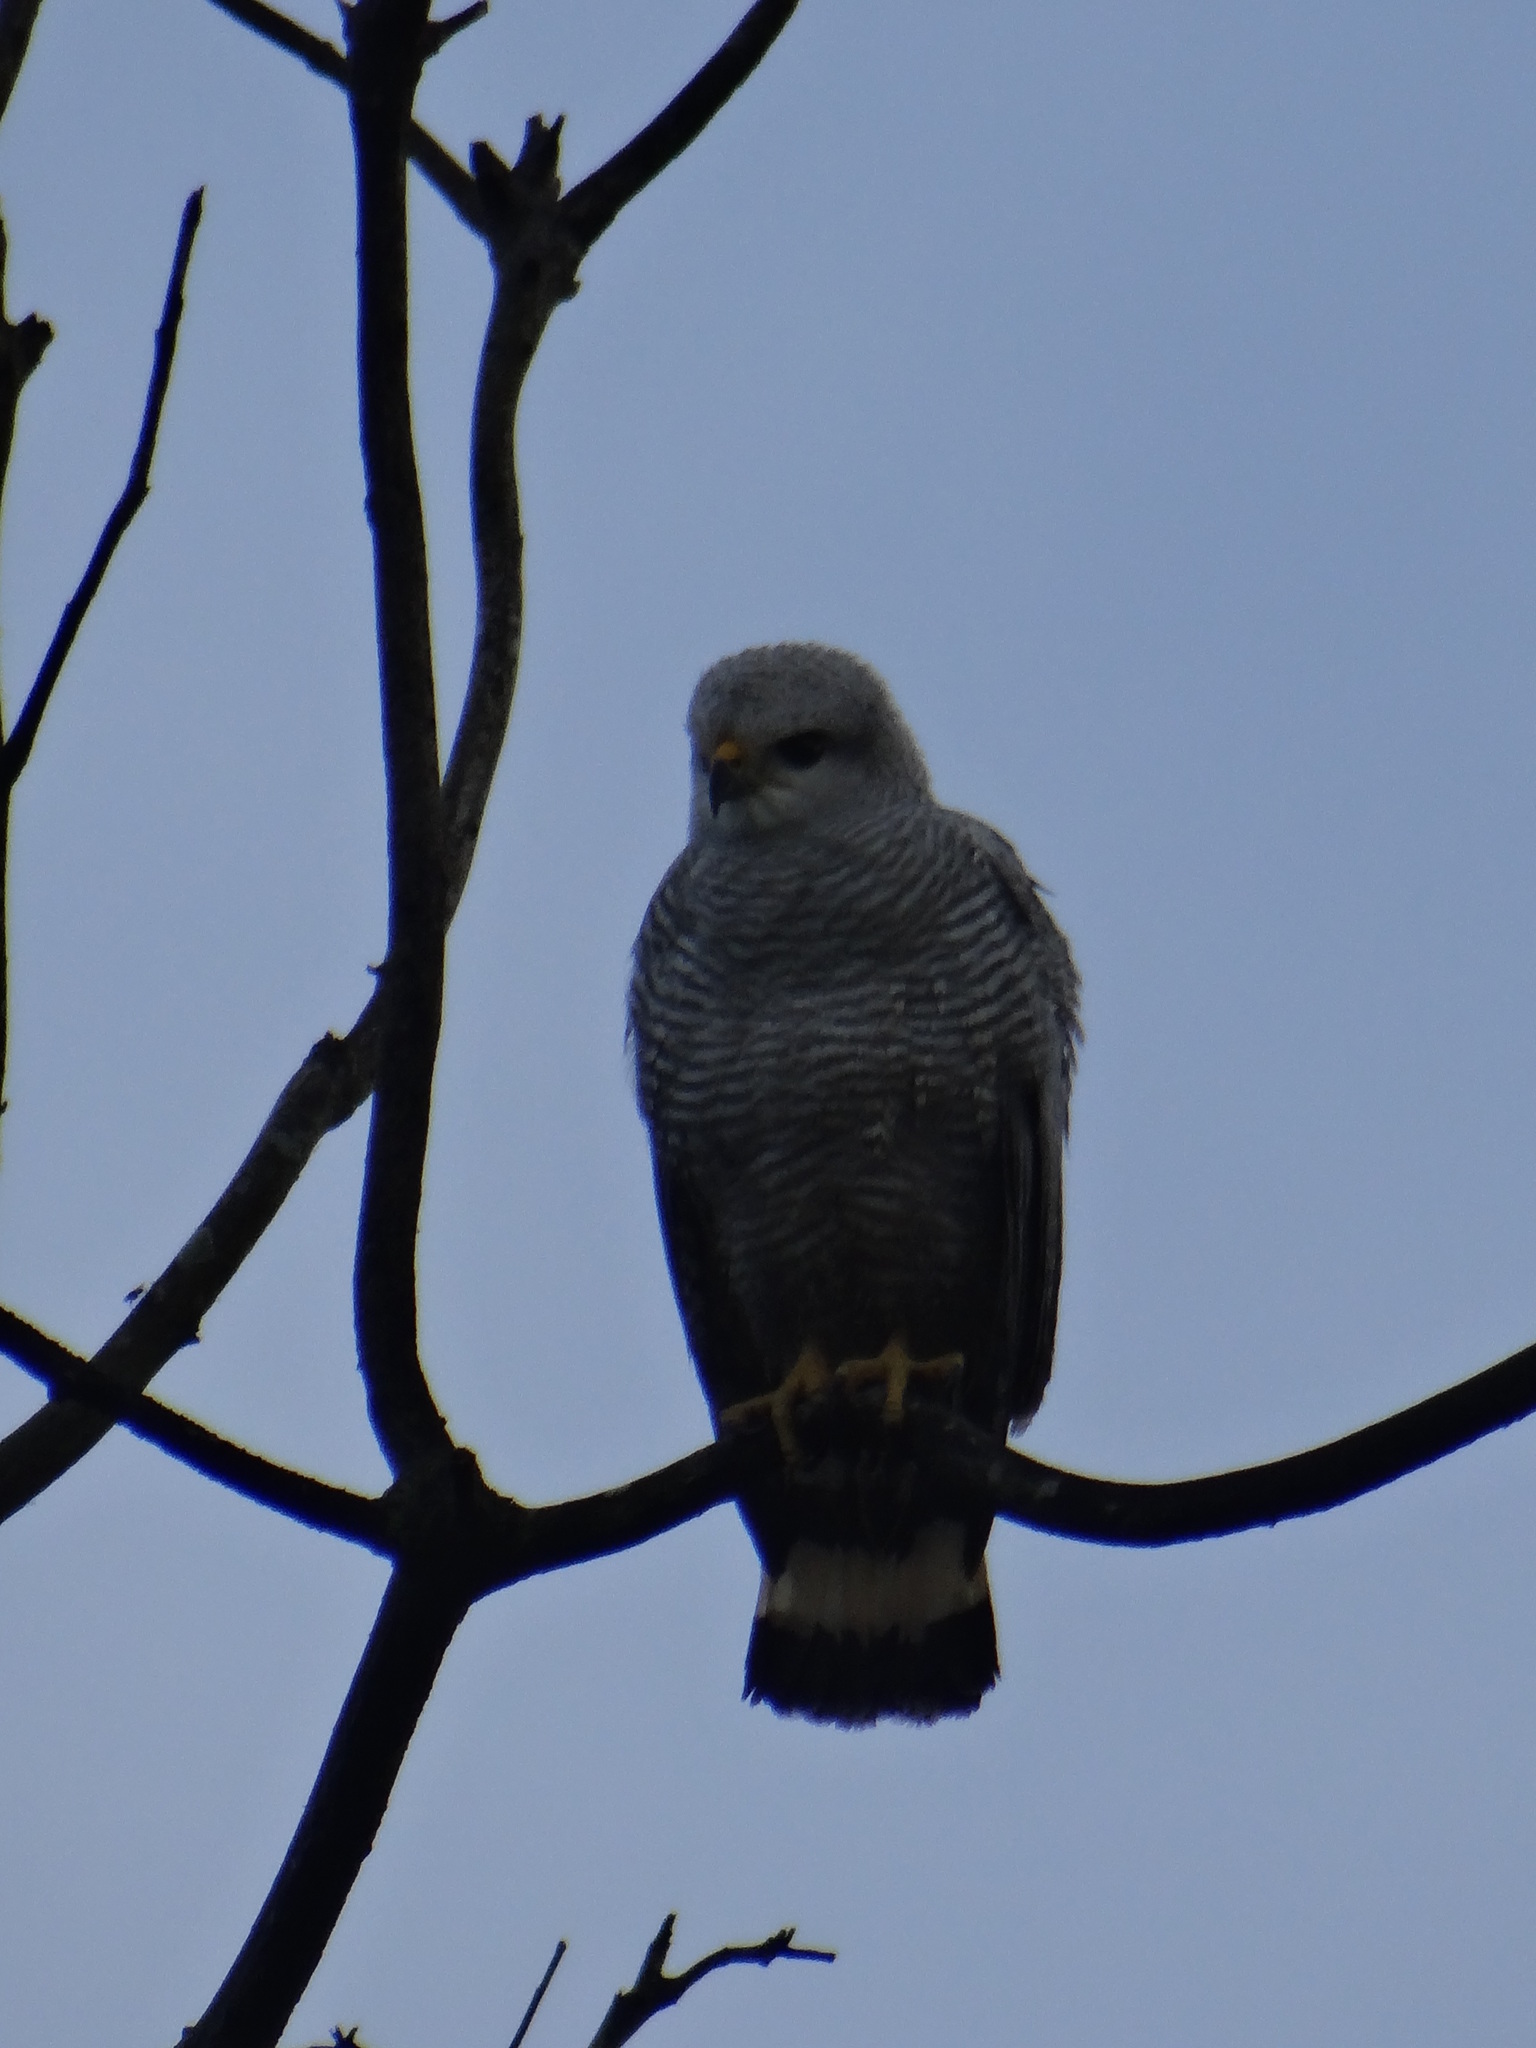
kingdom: Animalia
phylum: Chordata
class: Aves
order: Accipitriformes
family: Accipitridae
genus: Buteo
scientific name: Buteo nitidus
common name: Grey-lined hawk
